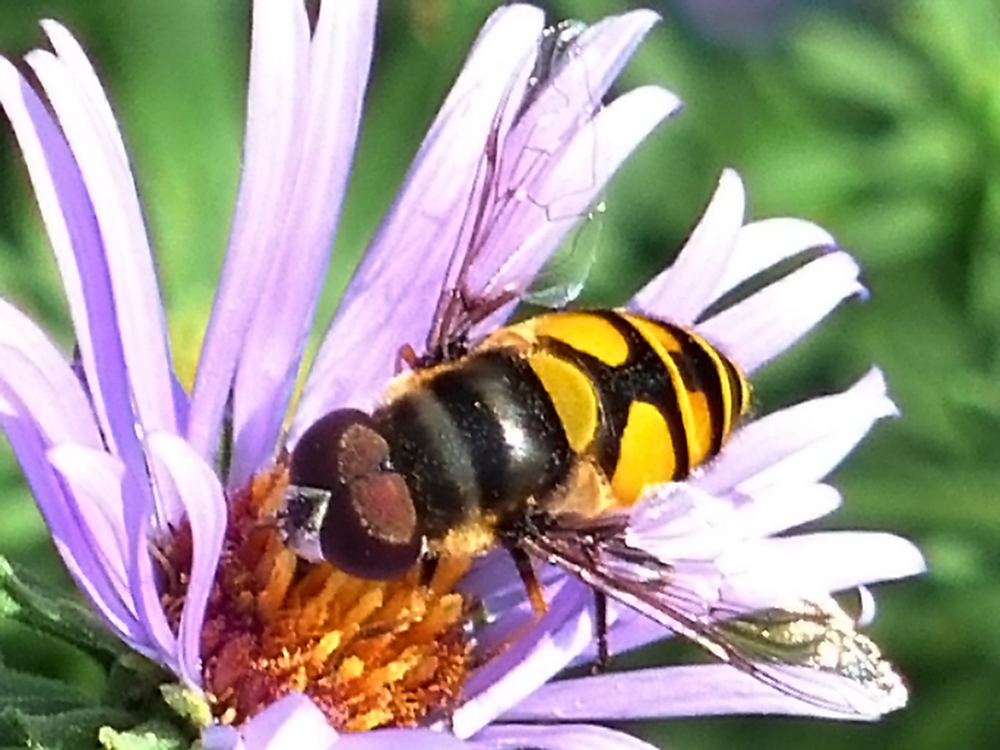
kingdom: Animalia
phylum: Arthropoda
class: Insecta
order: Diptera
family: Syrphidae
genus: Eristalis
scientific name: Eristalis transversa
